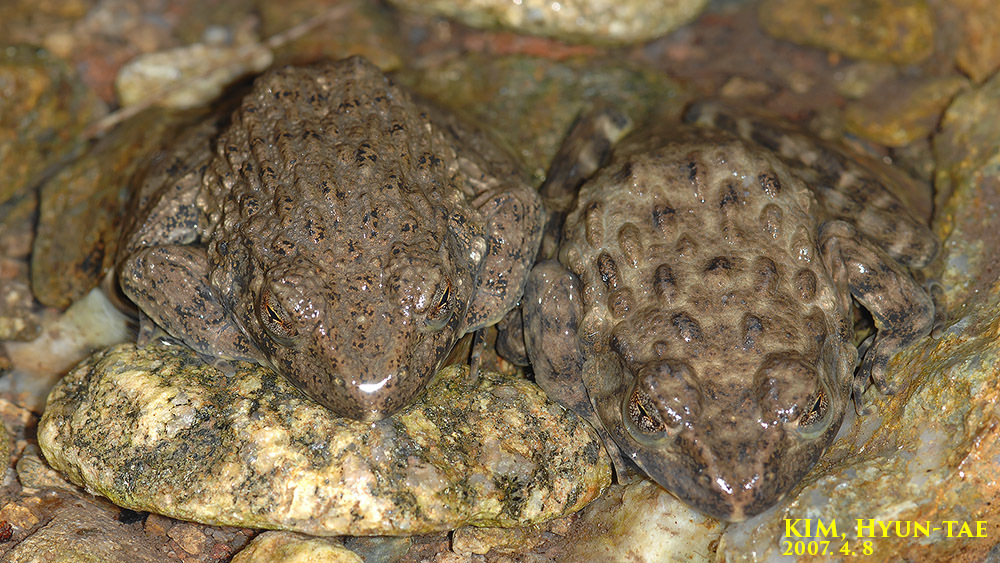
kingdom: Animalia
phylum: Chordata
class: Amphibia
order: Anura
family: Ranidae
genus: Glandirana
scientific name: Glandirana emeljanovi
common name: Northeast china rough-skinned frog
